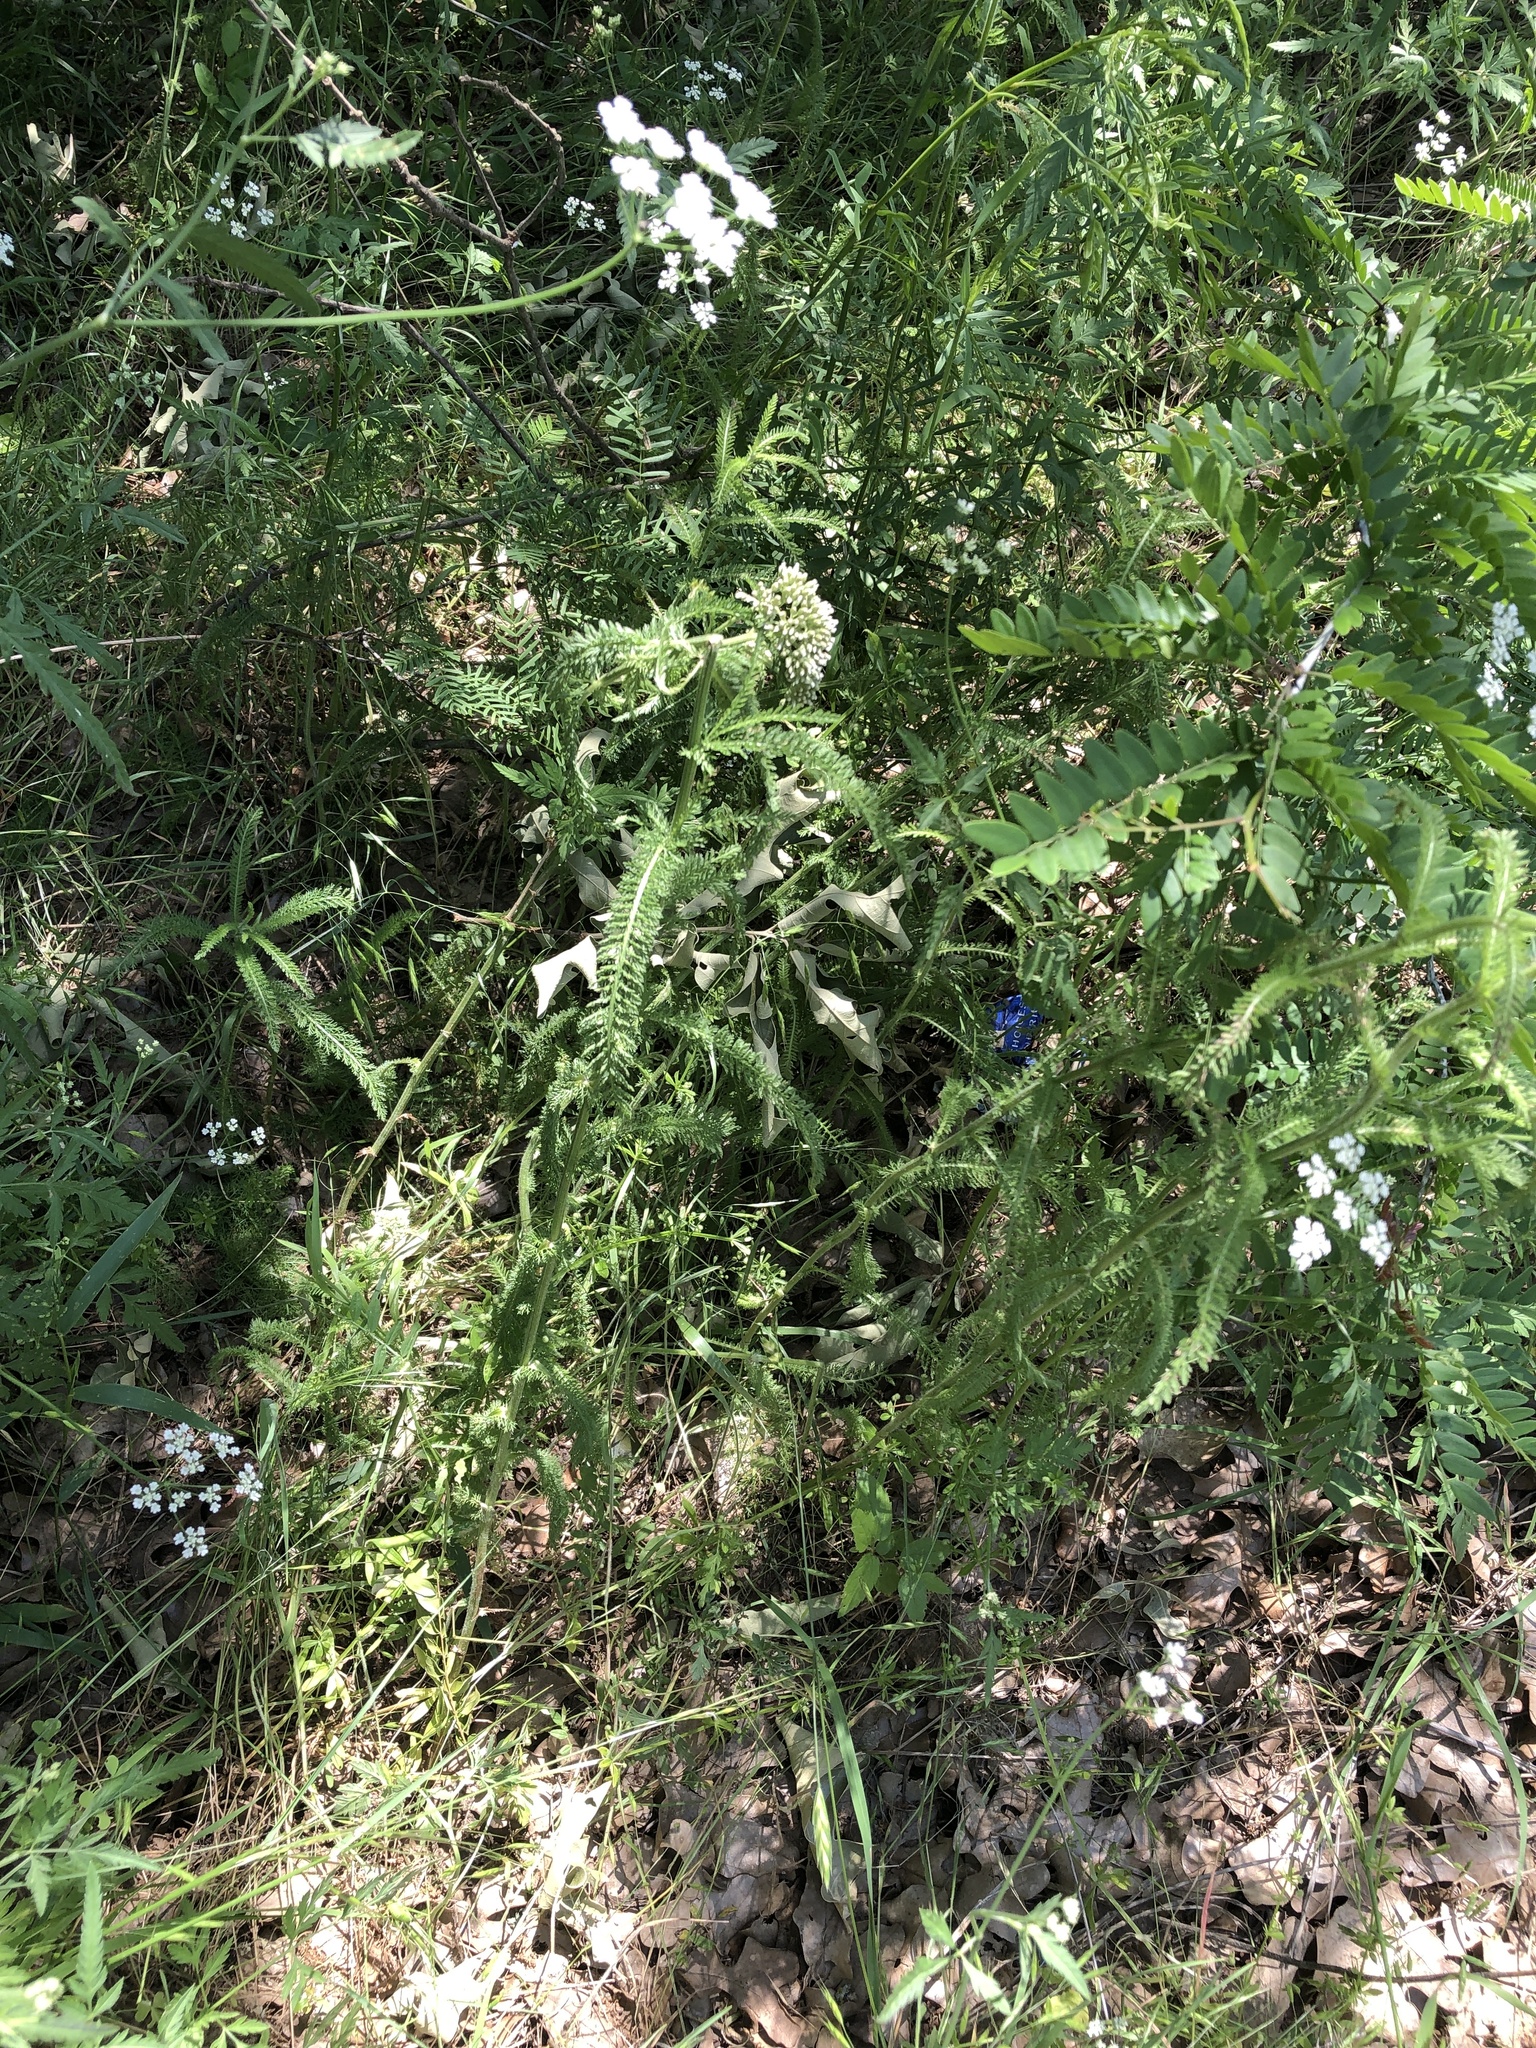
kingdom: Plantae
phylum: Tracheophyta
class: Magnoliopsida
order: Asterales
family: Asteraceae
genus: Achillea
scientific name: Achillea millefolium
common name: Yarrow
